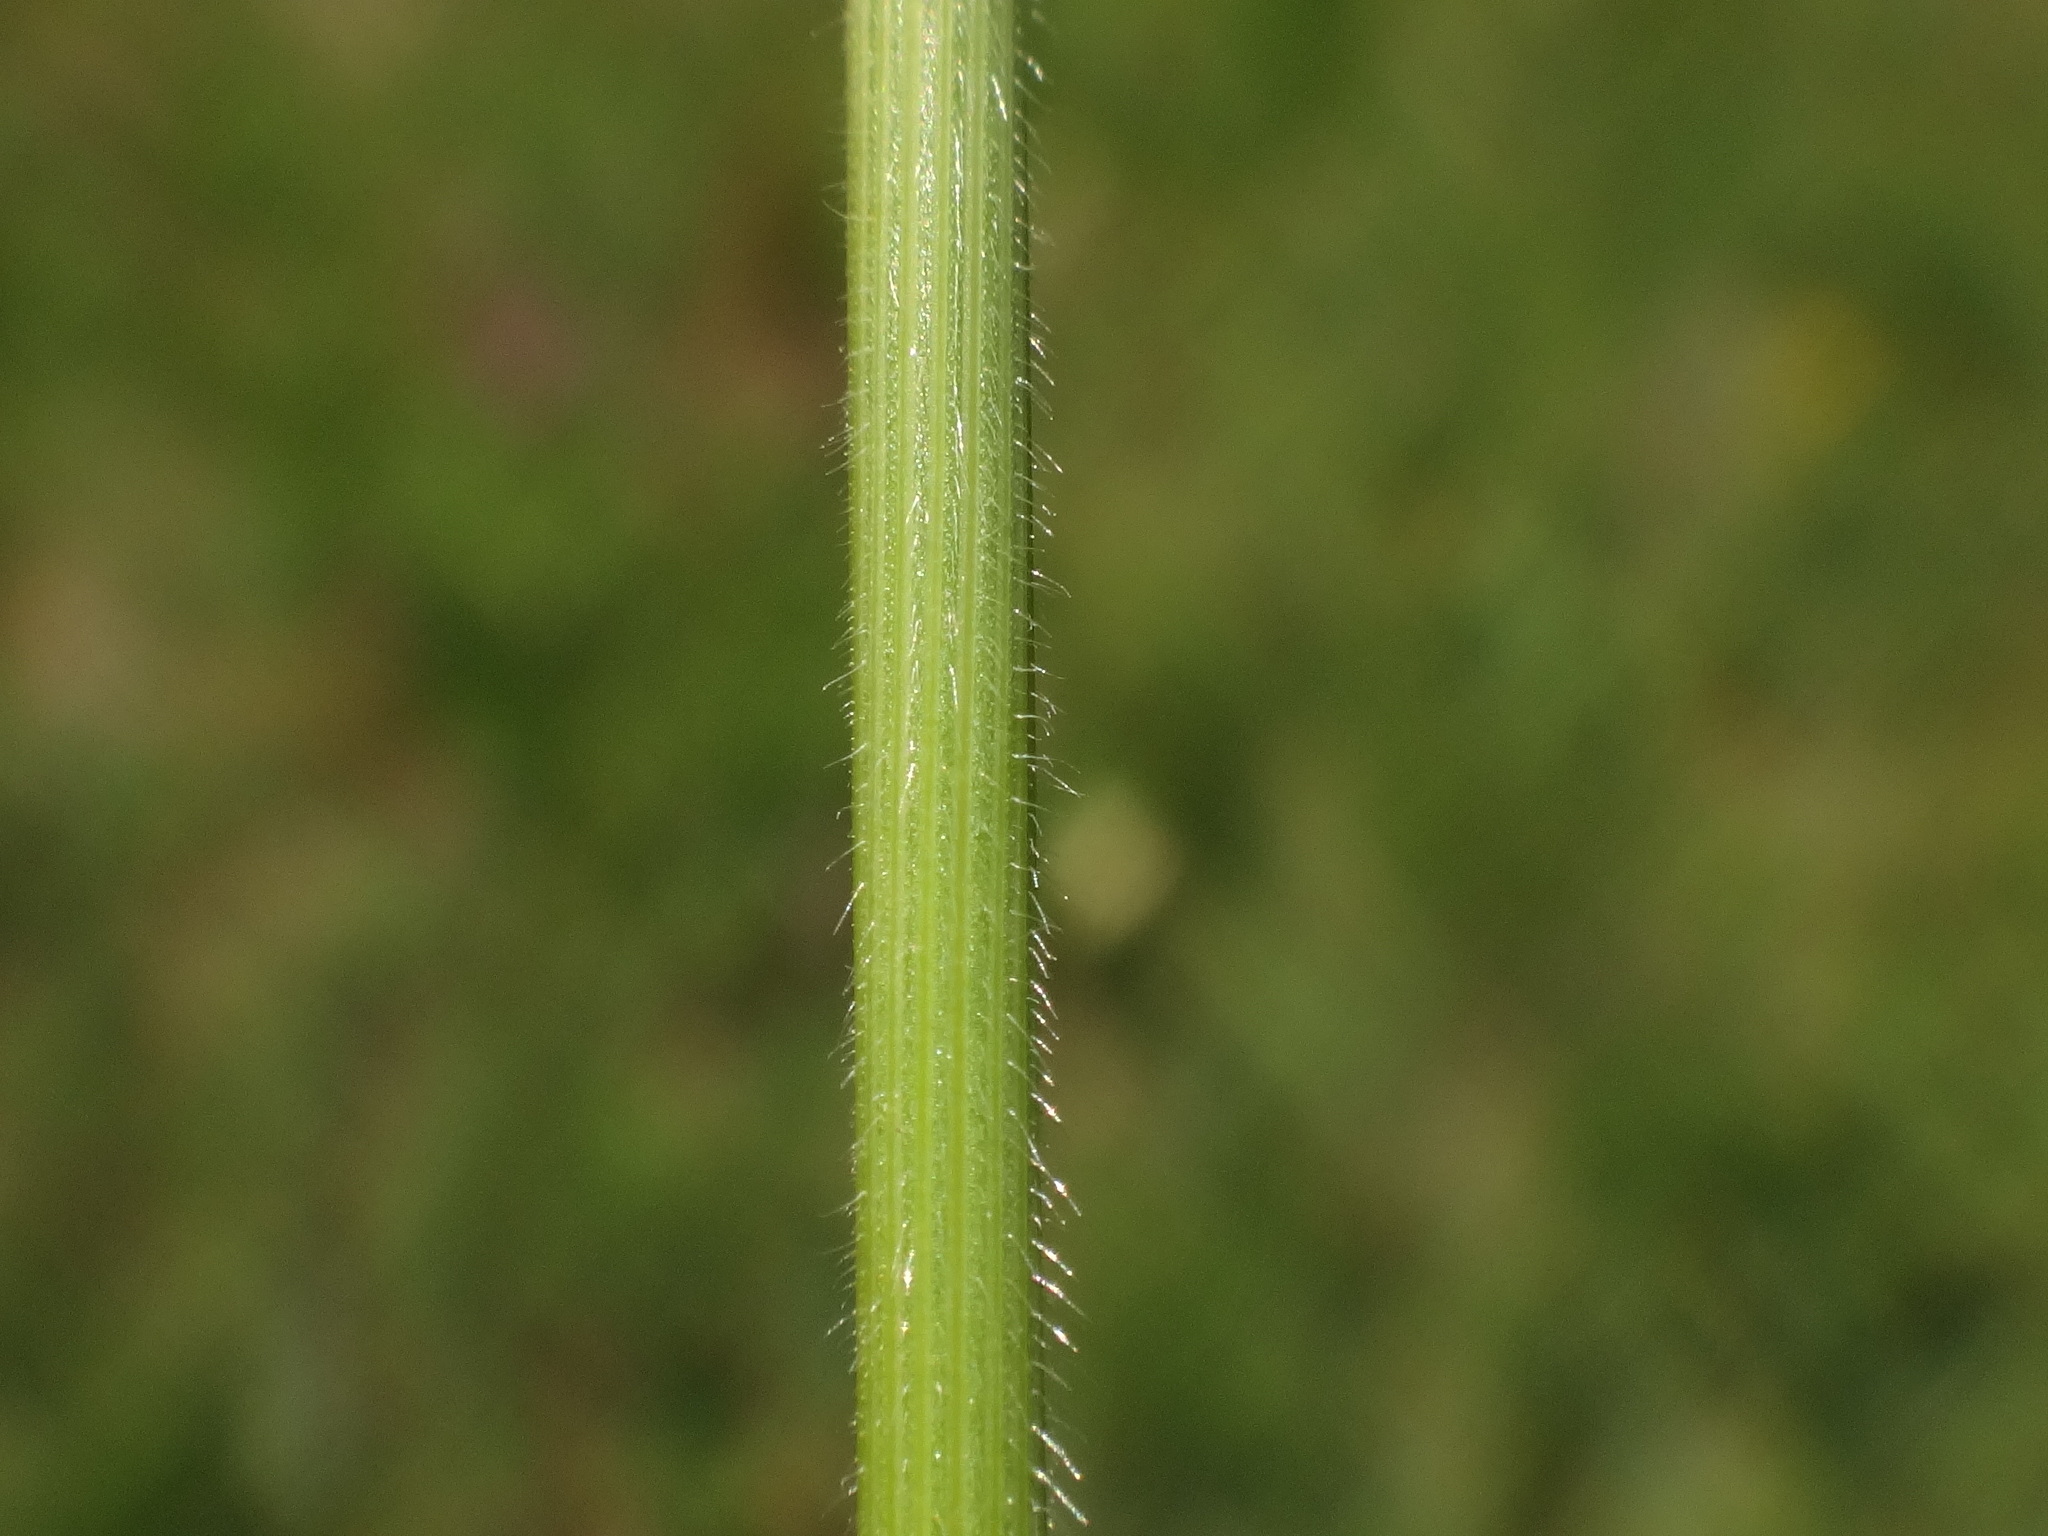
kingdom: Plantae
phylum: Tracheophyta
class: Liliopsida
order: Poales
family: Poaceae
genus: Koeleria
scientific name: Koeleria macrantha
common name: Crested hair-grass
